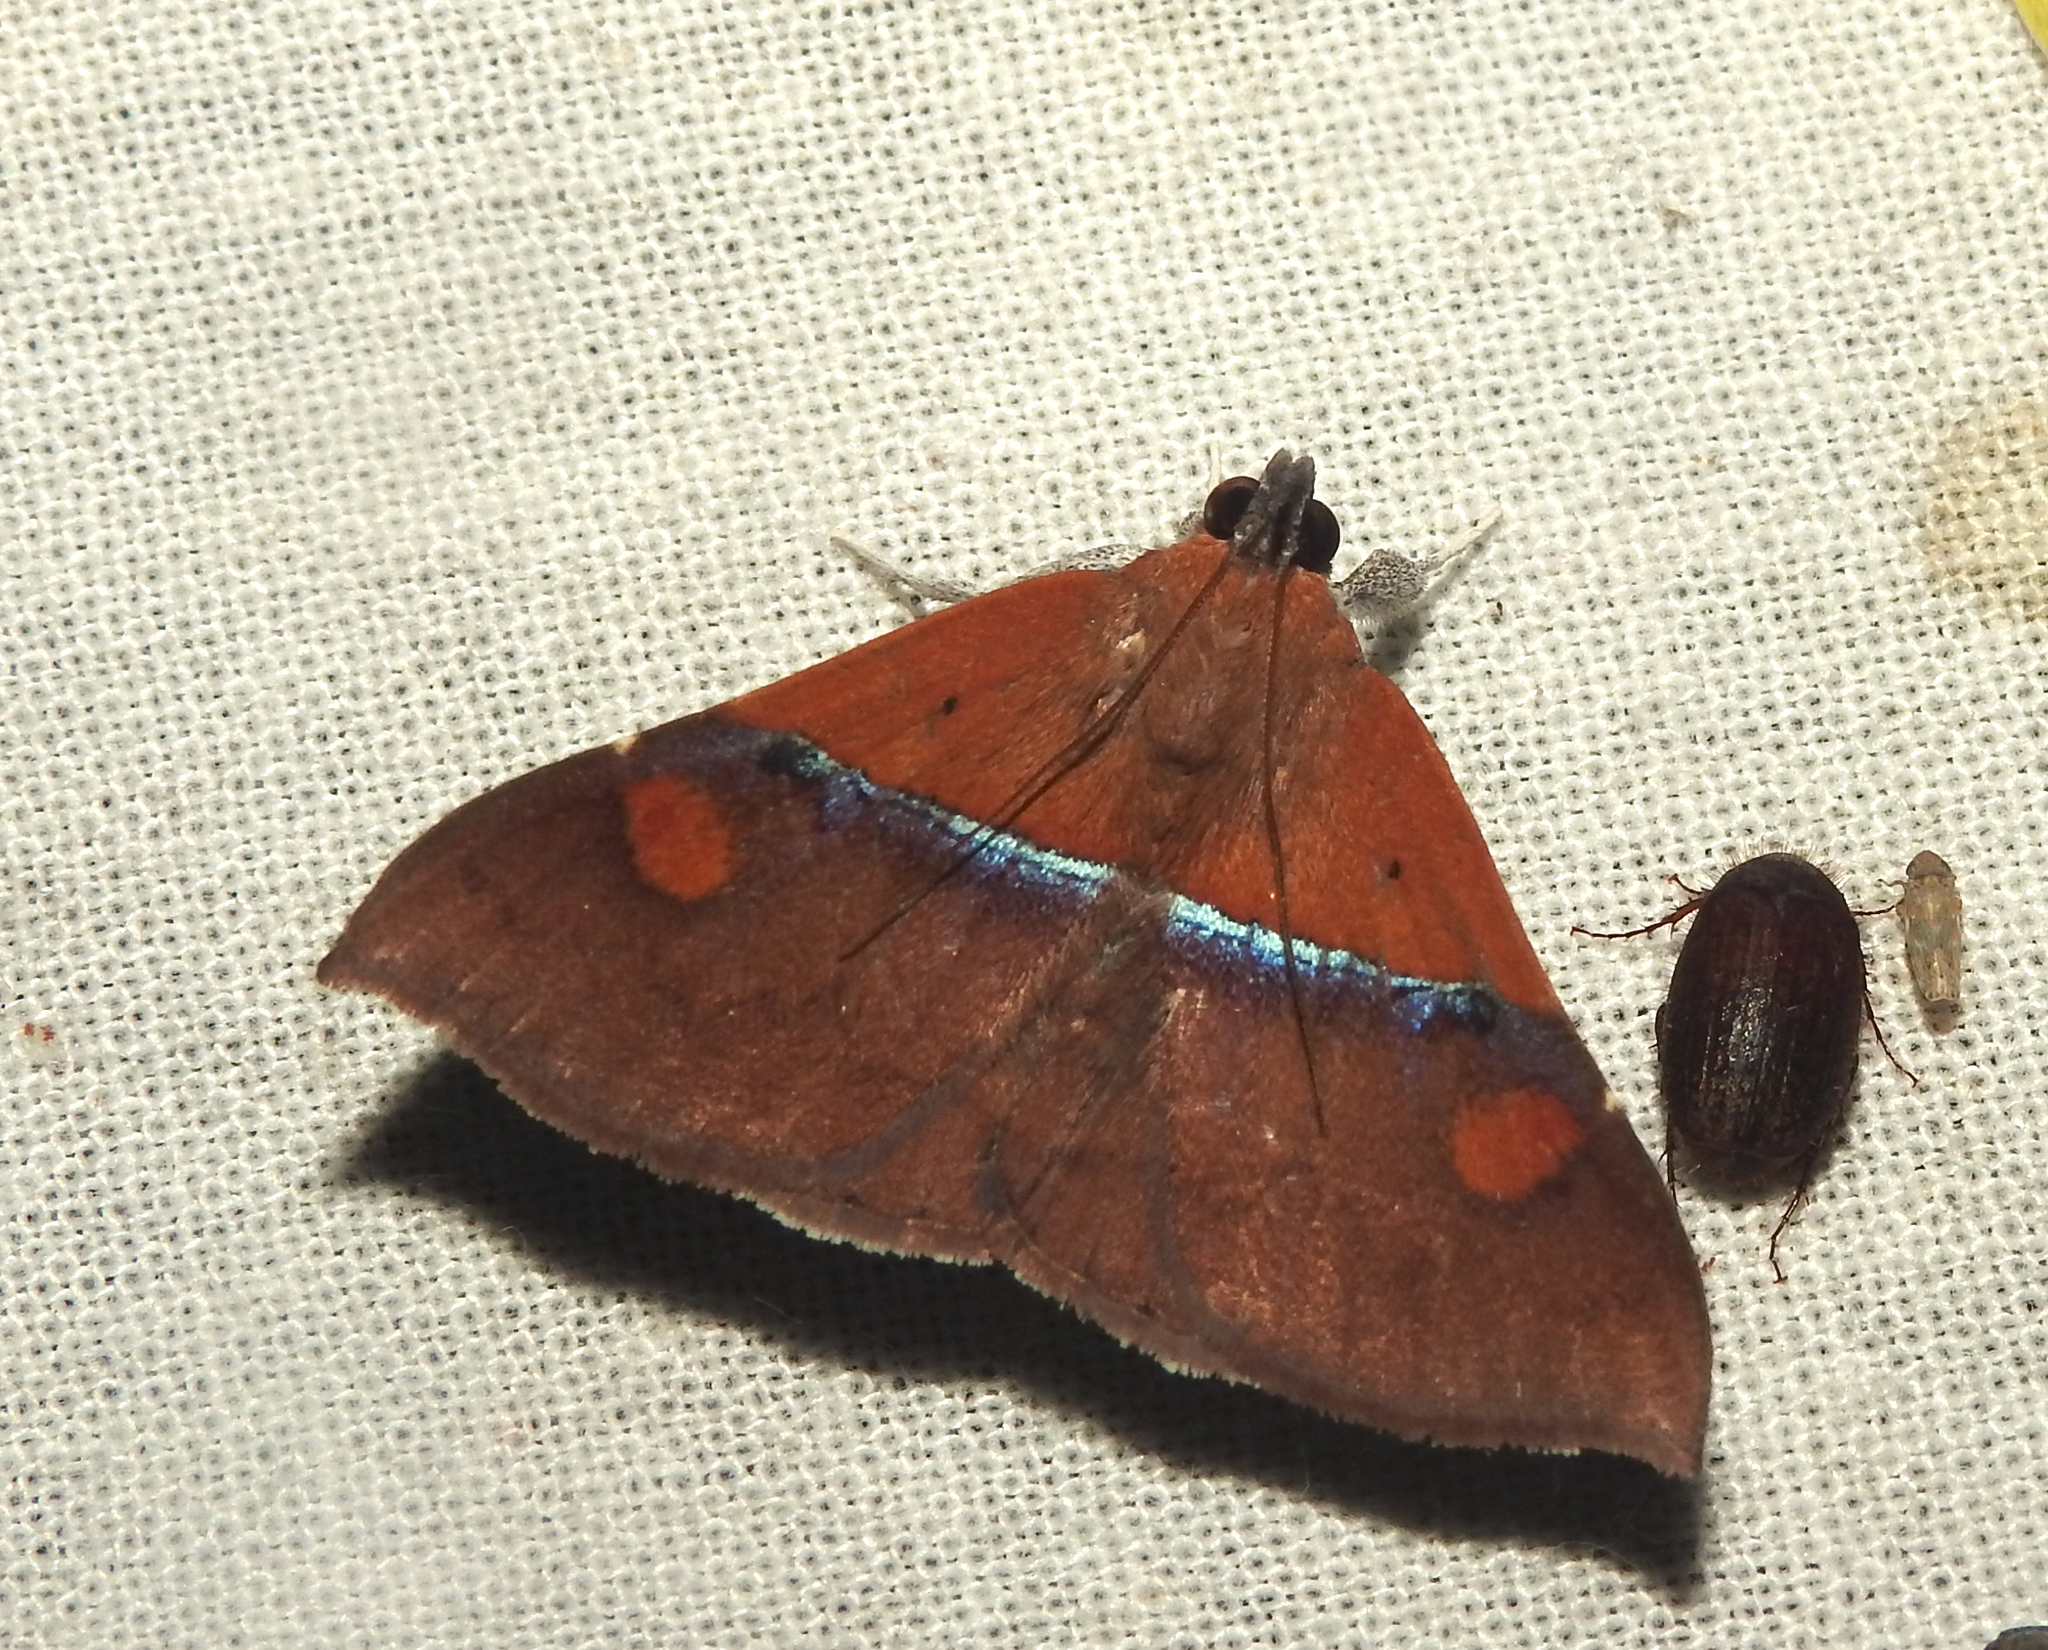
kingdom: Animalia
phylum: Arthropoda
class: Insecta
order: Lepidoptera
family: Erebidae
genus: Sympis
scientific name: Sympis rufibasis
